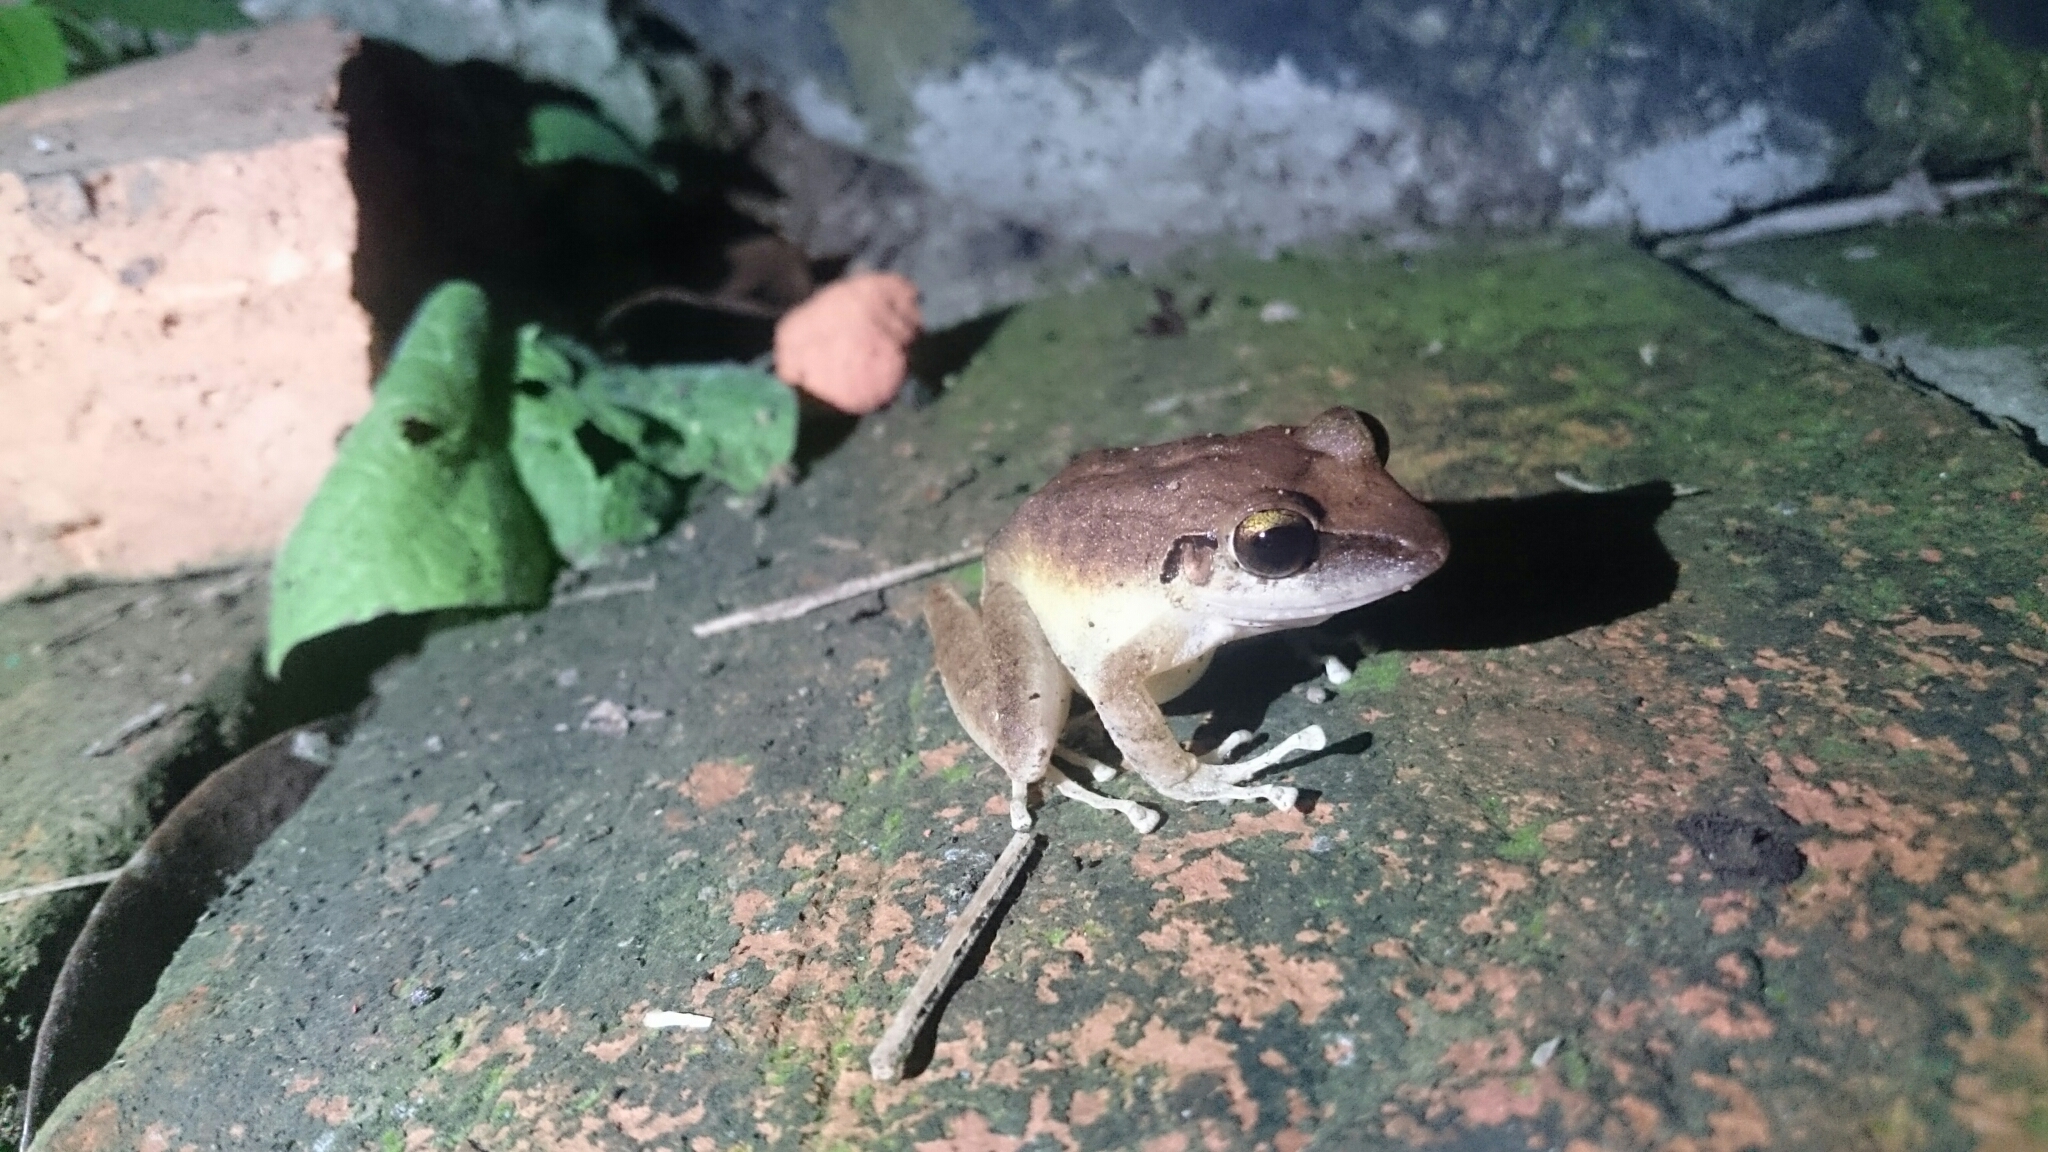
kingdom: Animalia
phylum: Chordata
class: Amphibia
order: Anura
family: Craugastoridae
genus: Pristimantis
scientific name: Pristimantis achatinus
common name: Cachabi robber frog
